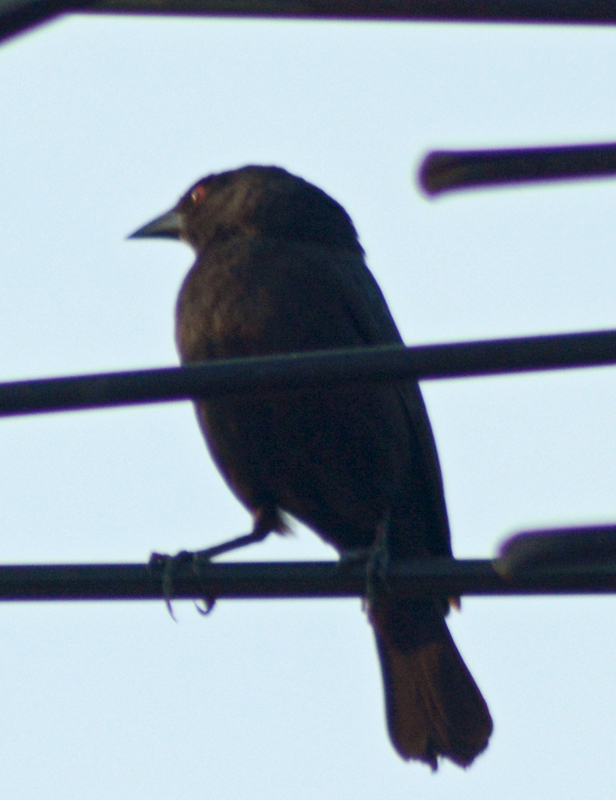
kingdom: Animalia
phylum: Chordata
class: Aves
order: Passeriformes
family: Icteridae
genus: Molothrus
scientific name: Molothrus aeneus
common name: Bronzed cowbird
